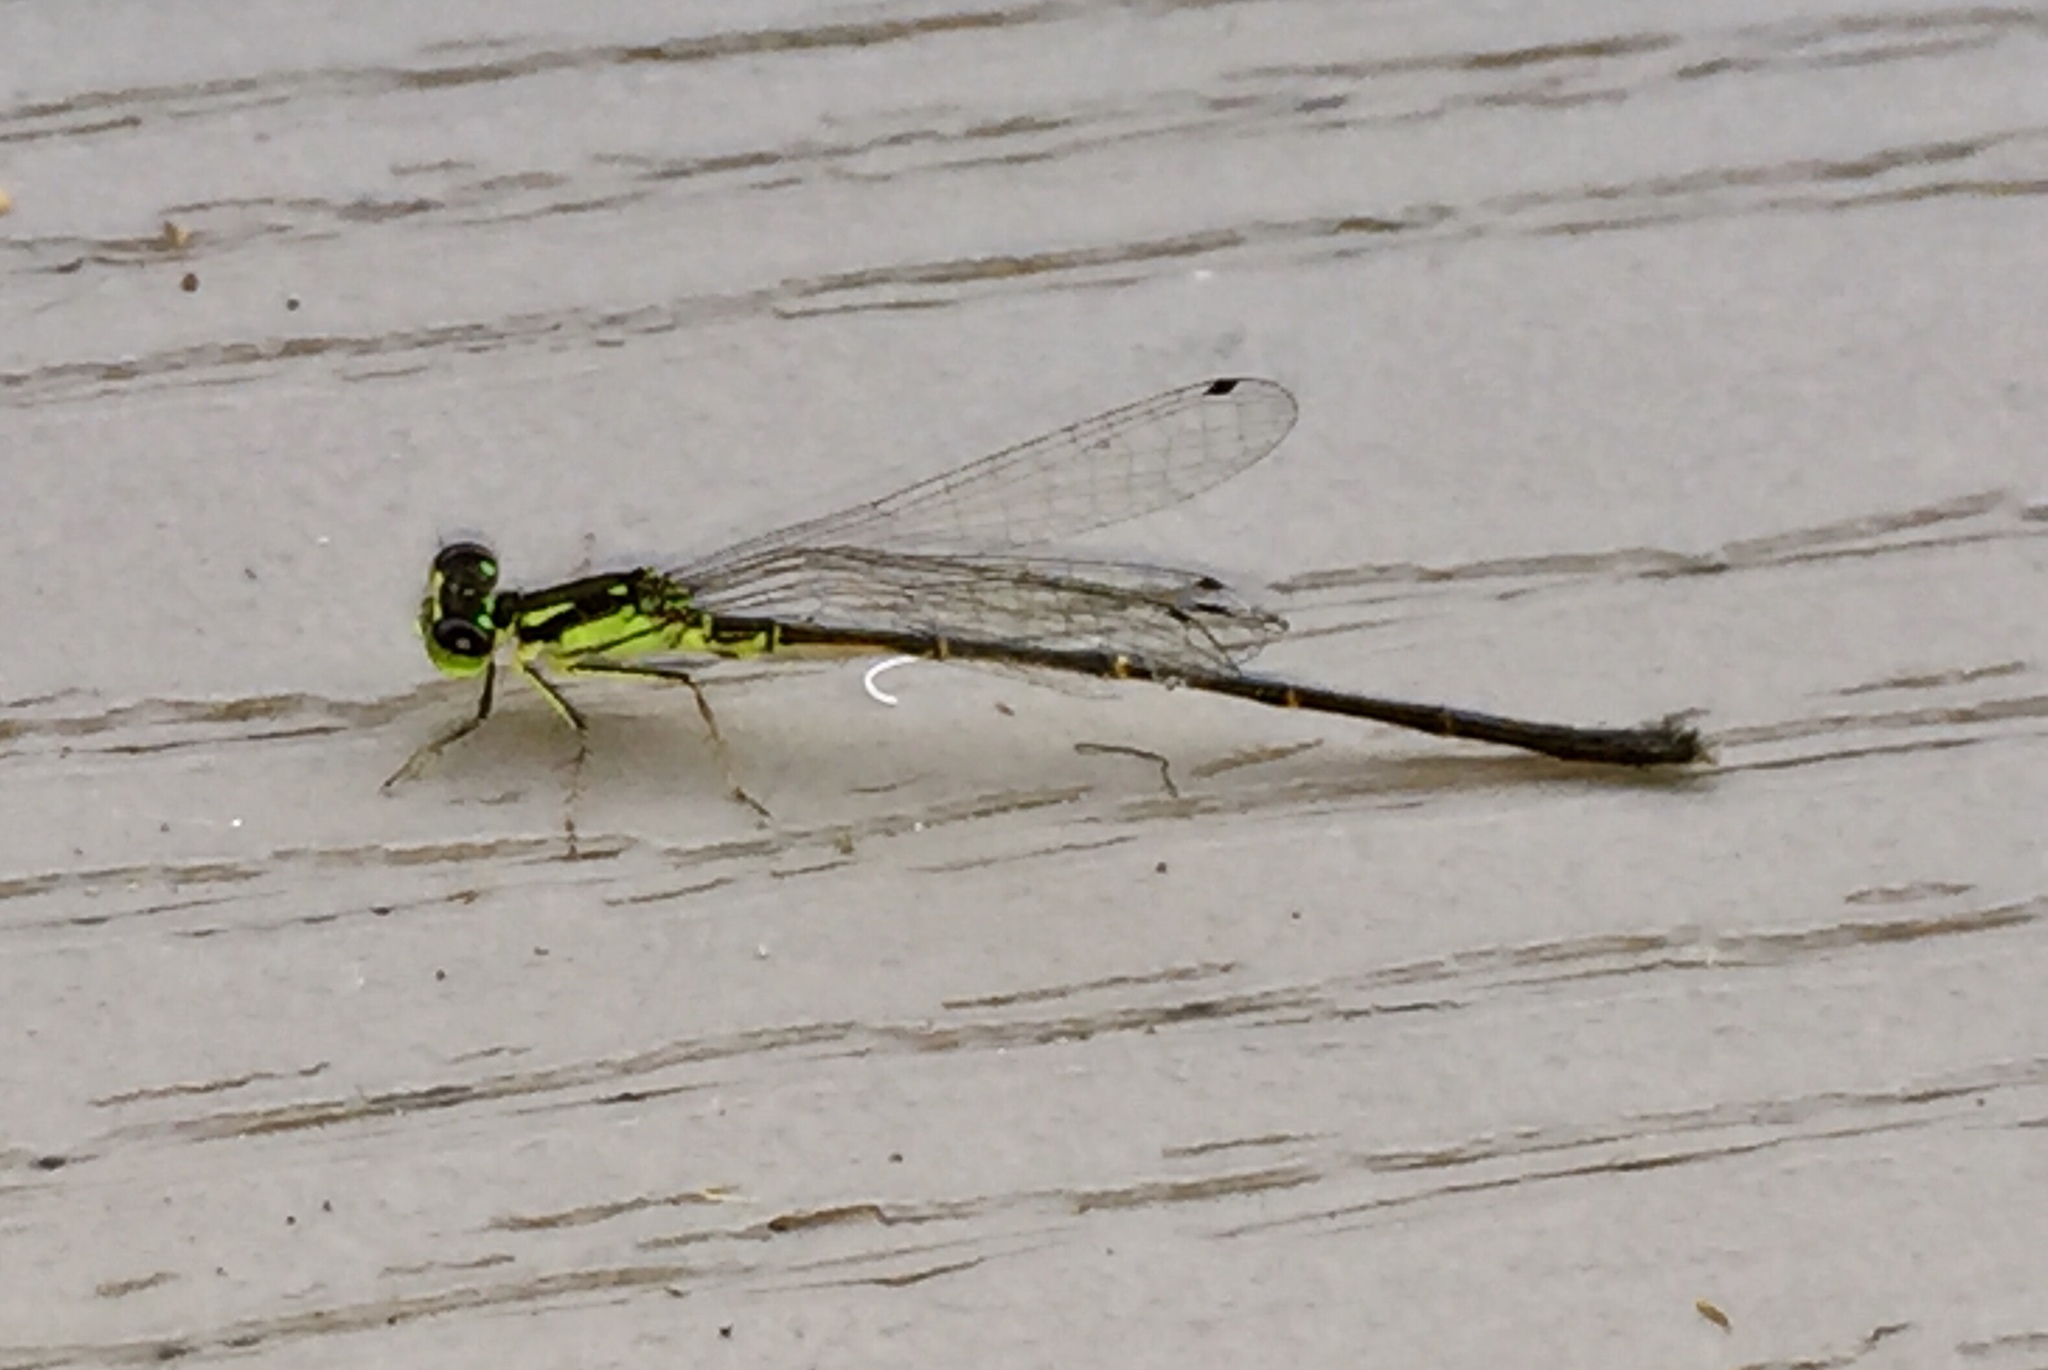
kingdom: Animalia
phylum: Arthropoda
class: Insecta
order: Odonata
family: Coenagrionidae
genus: Ischnura
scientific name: Ischnura posita
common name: Fragile forktail
